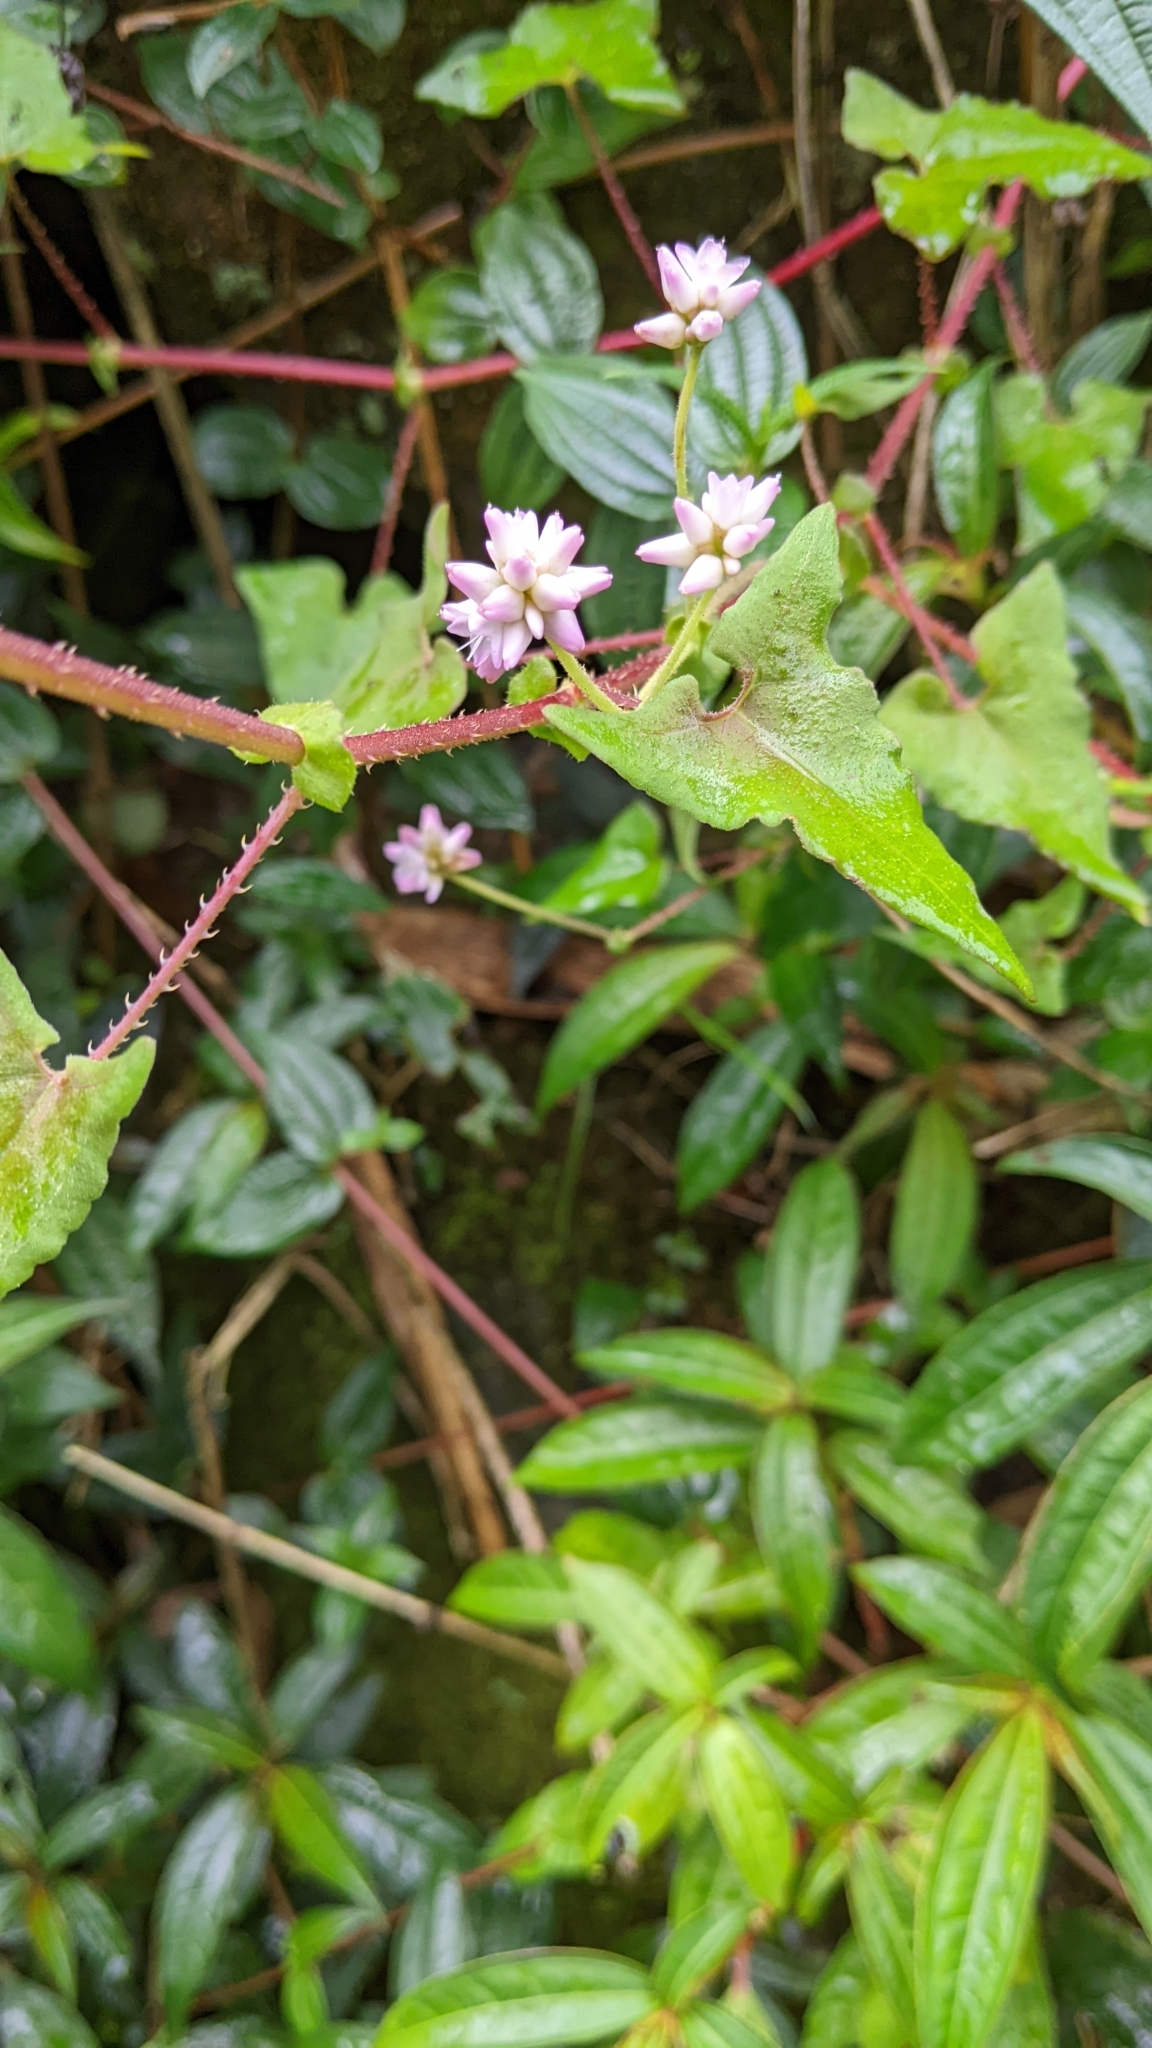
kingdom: Plantae
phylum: Tracheophyta
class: Magnoliopsida
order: Caryophyllales
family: Polygonaceae
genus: Persicaria
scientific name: Persicaria senticosa
